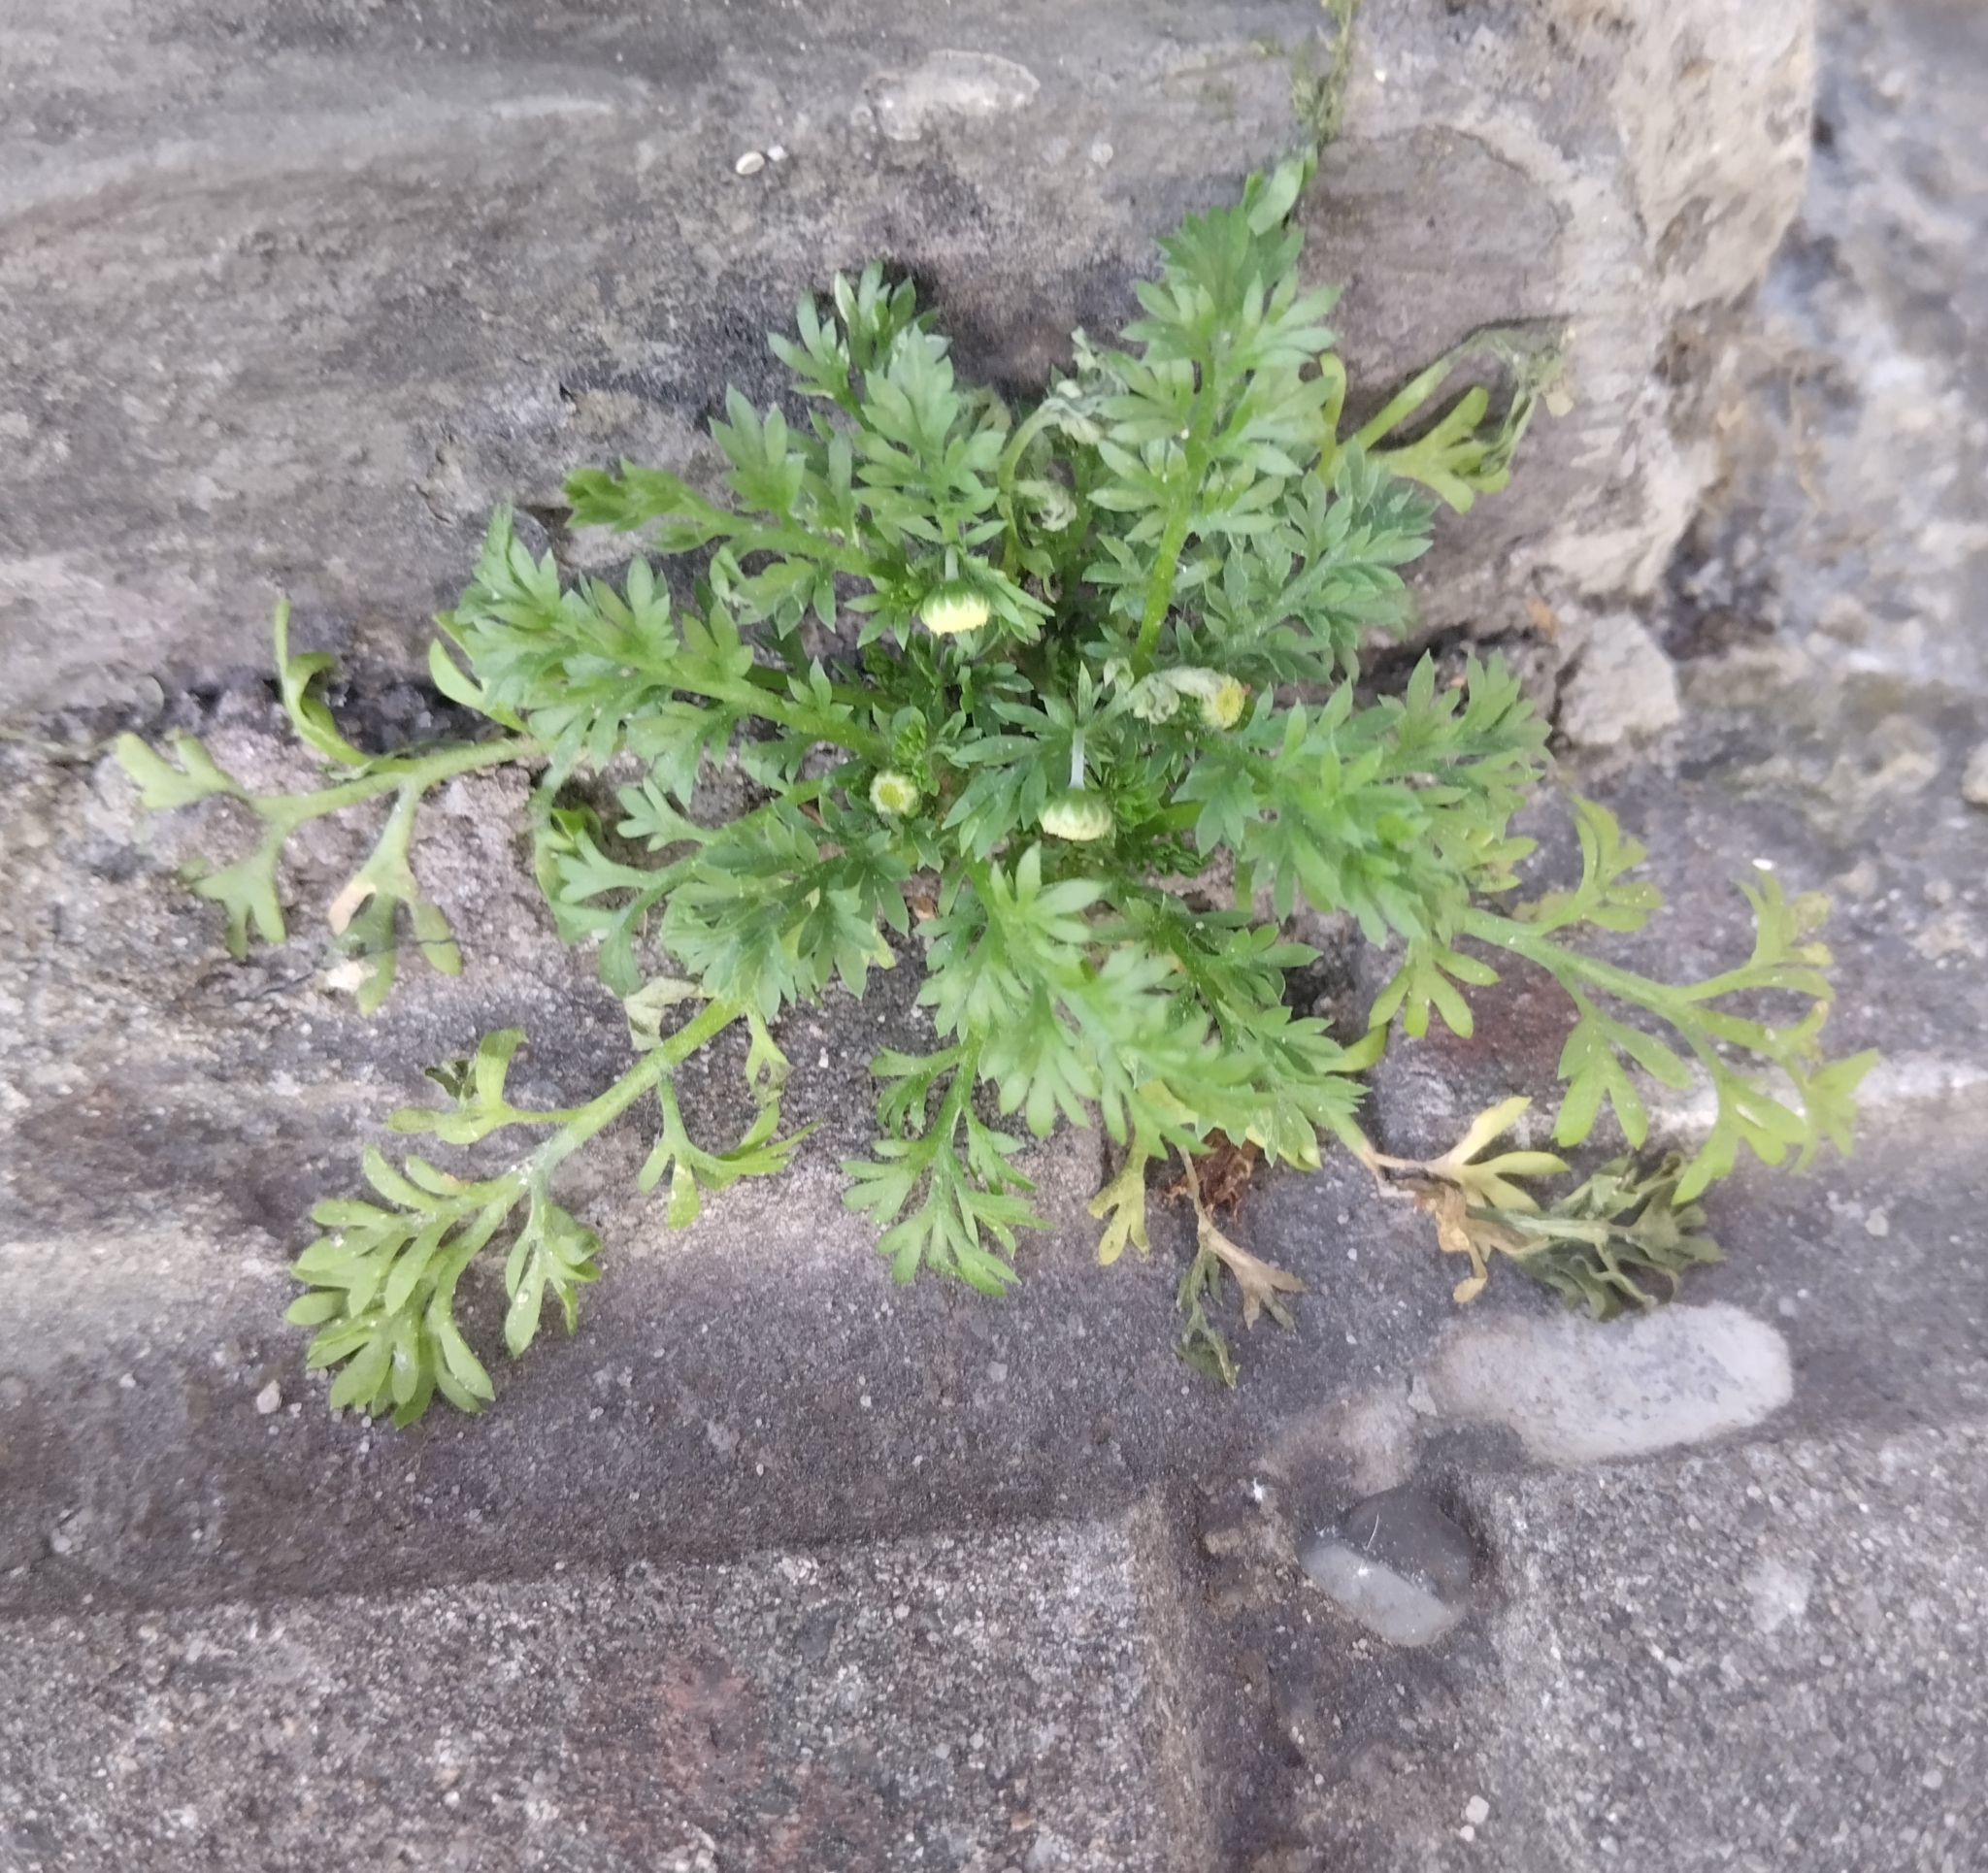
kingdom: Plantae
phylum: Tracheophyta
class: Magnoliopsida
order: Asterales
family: Asteraceae
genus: Cotula
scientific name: Cotula australis
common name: Australian waterbuttons
